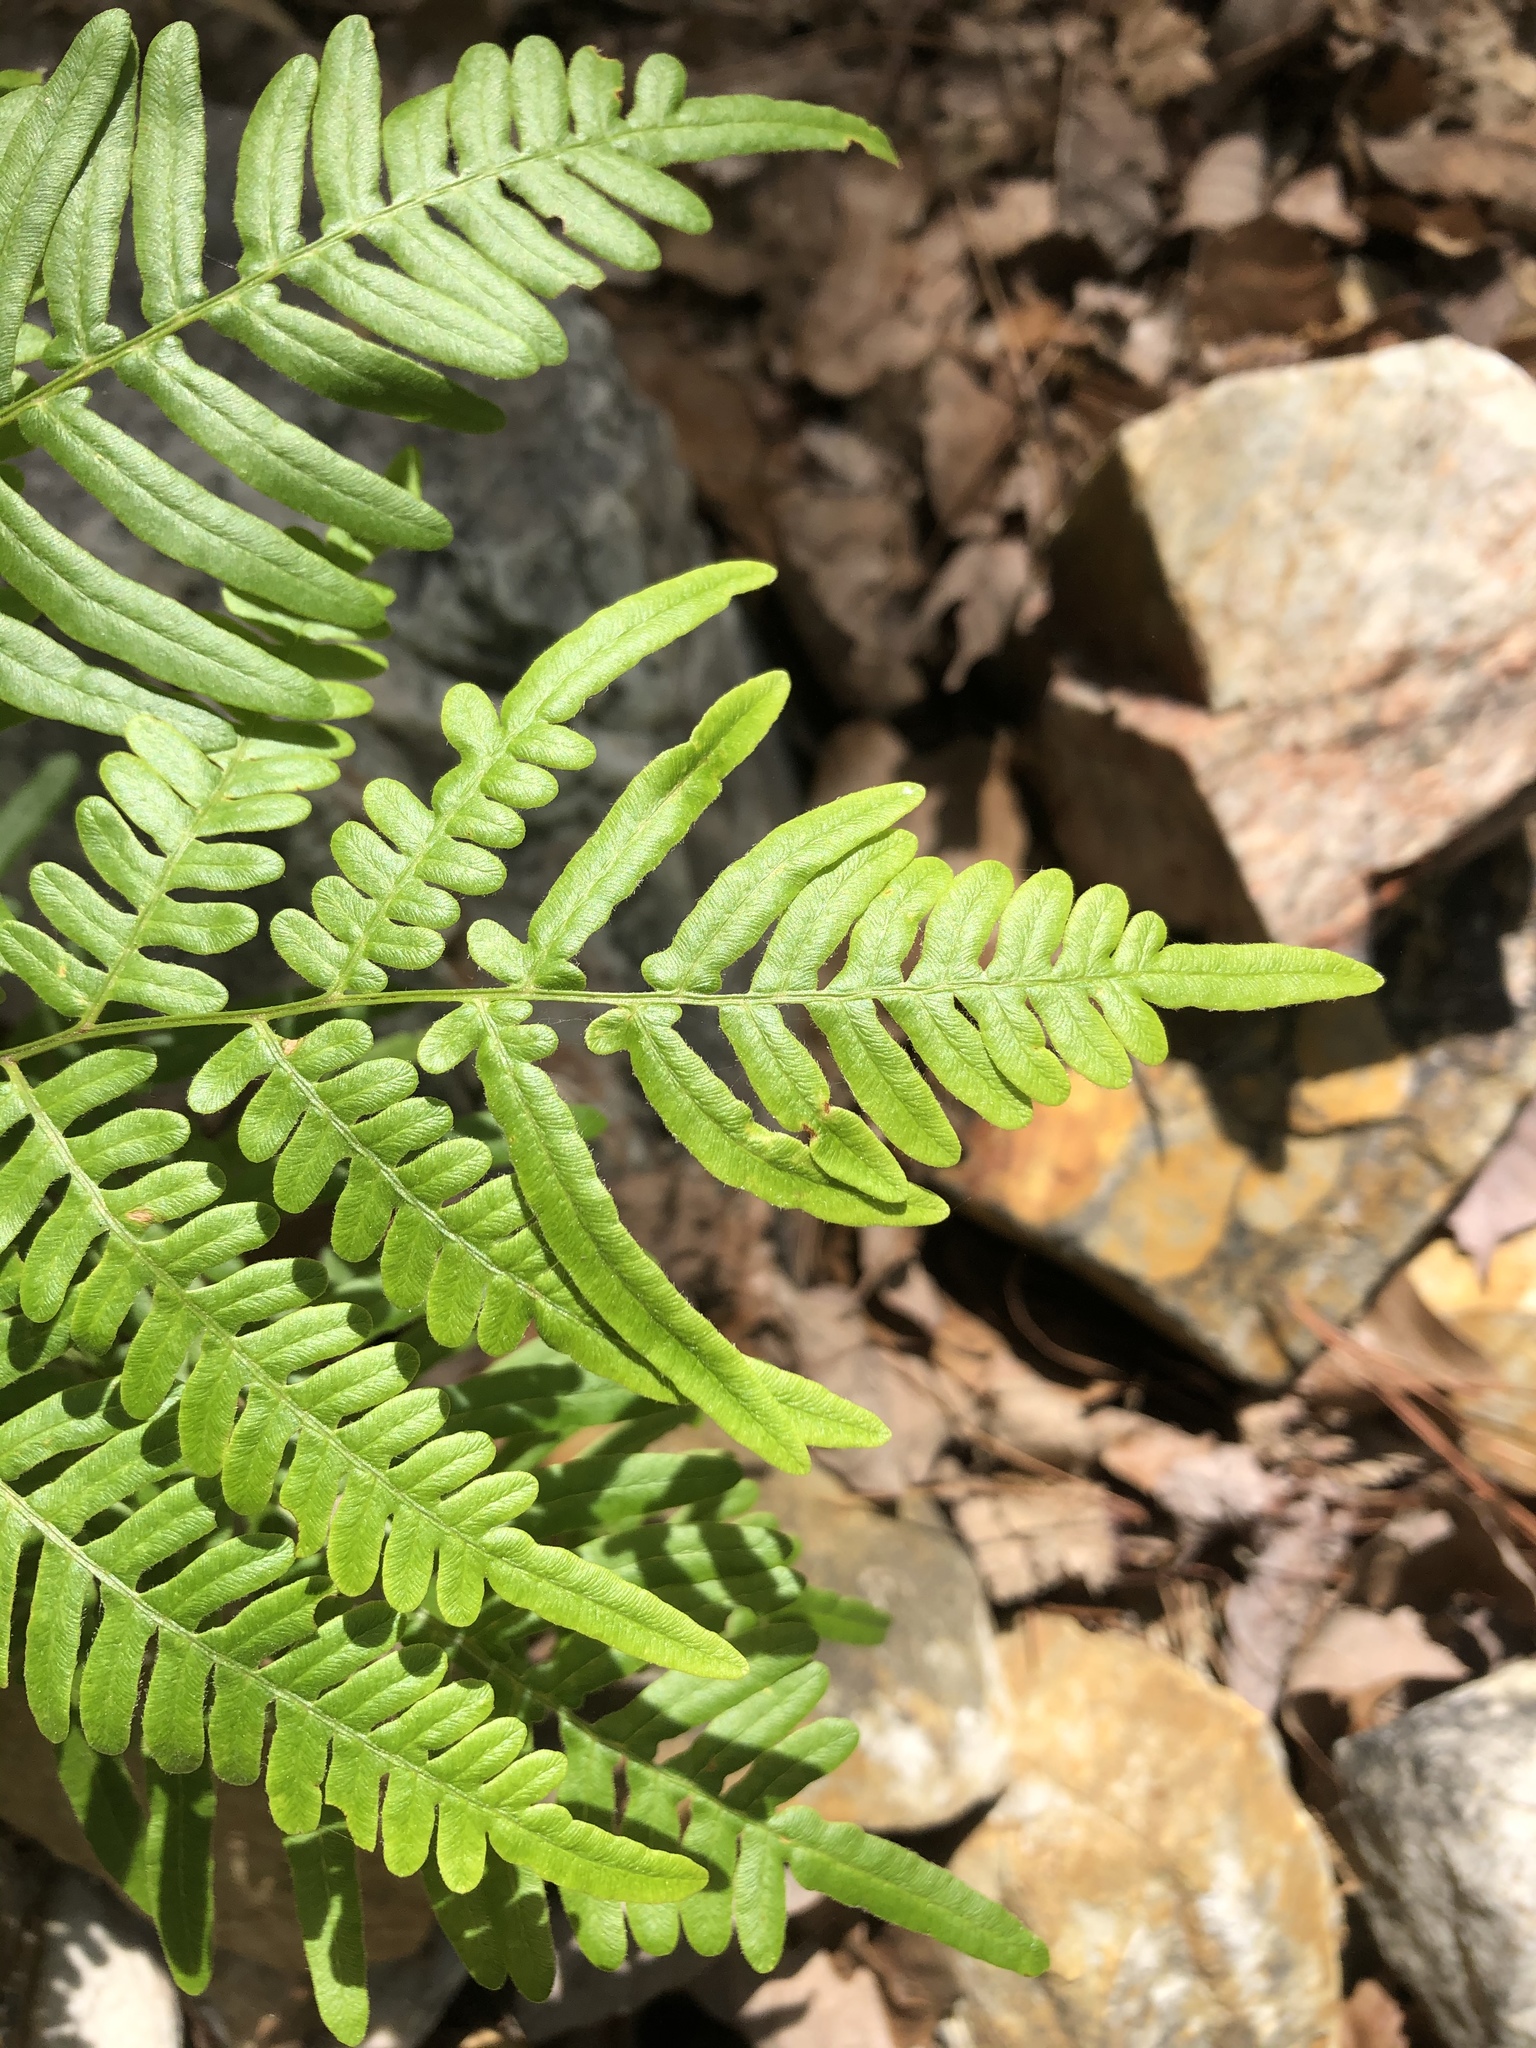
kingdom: Plantae
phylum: Tracheophyta
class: Polypodiopsida
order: Polypodiales
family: Dennstaedtiaceae
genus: Pteridium
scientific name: Pteridium
